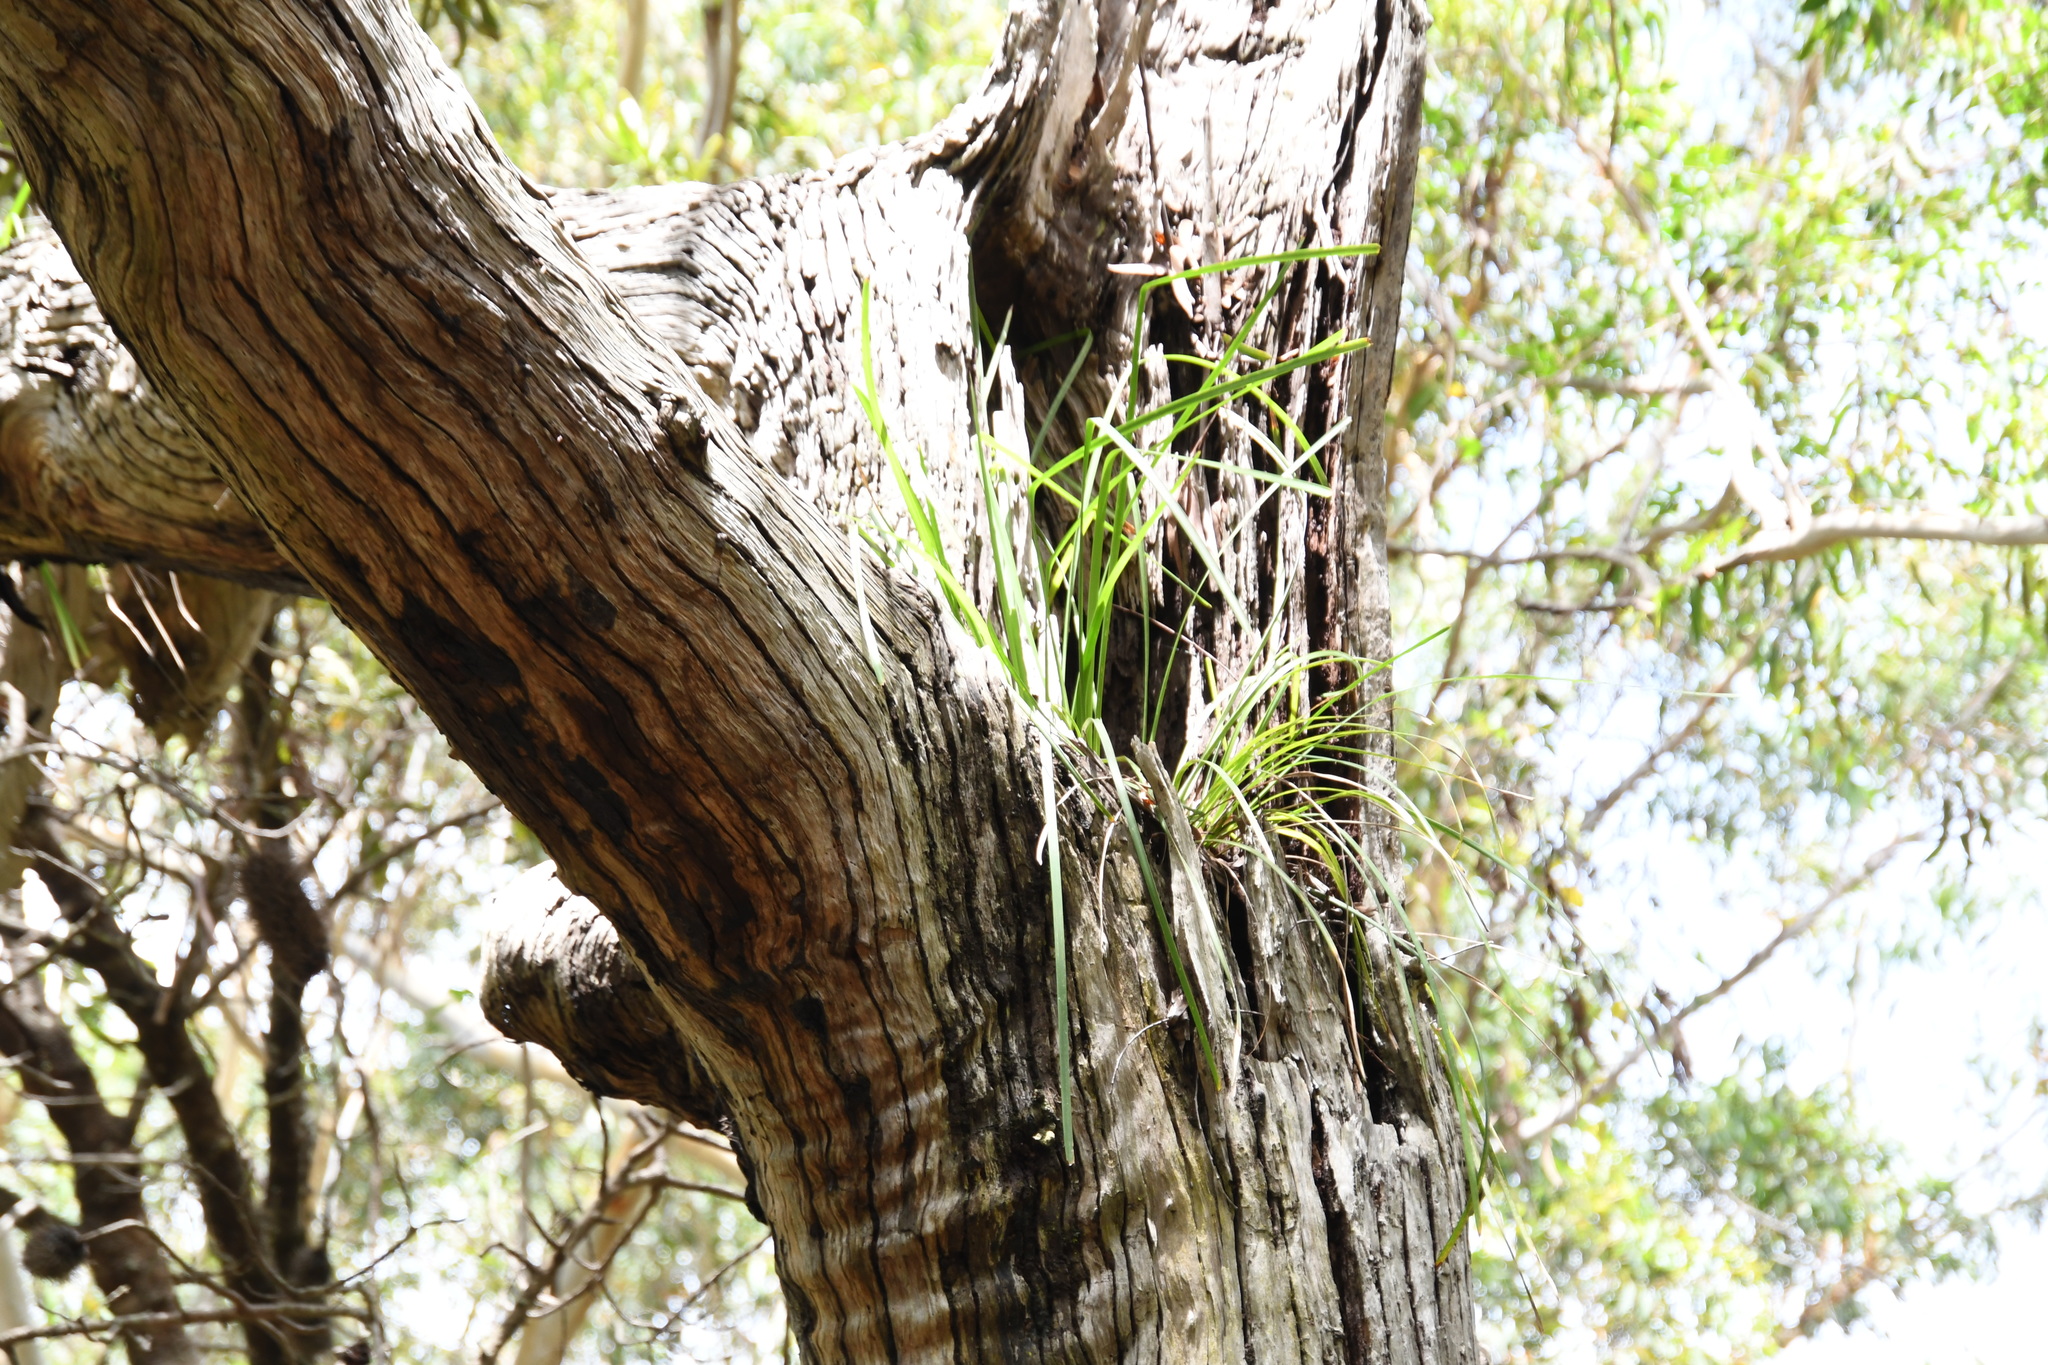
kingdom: Plantae
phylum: Tracheophyta
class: Liliopsida
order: Asparagales
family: Orchidaceae
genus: Cymbidium
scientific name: Cymbidium suave
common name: Snake orchid
